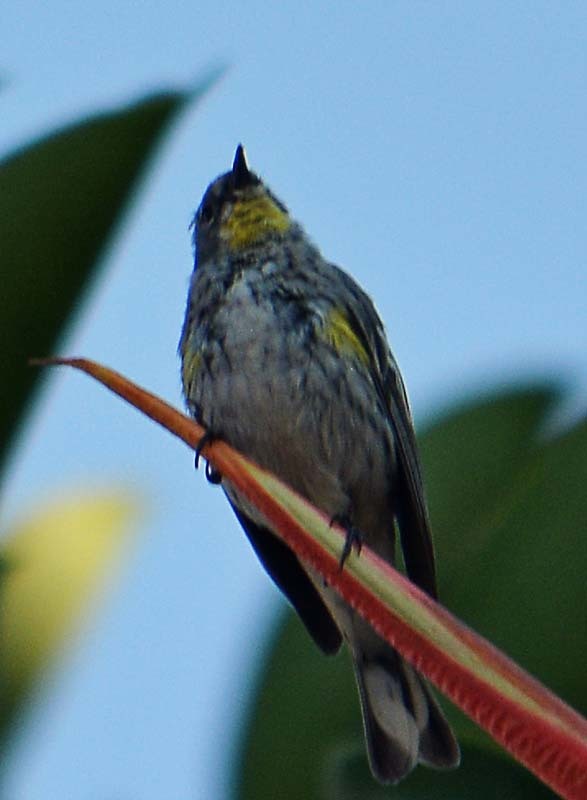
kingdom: Animalia
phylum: Chordata
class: Aves
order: Passeriformes
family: Parulidae
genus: Setophaga
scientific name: Setophaga coronata
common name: Myrtle warbler
